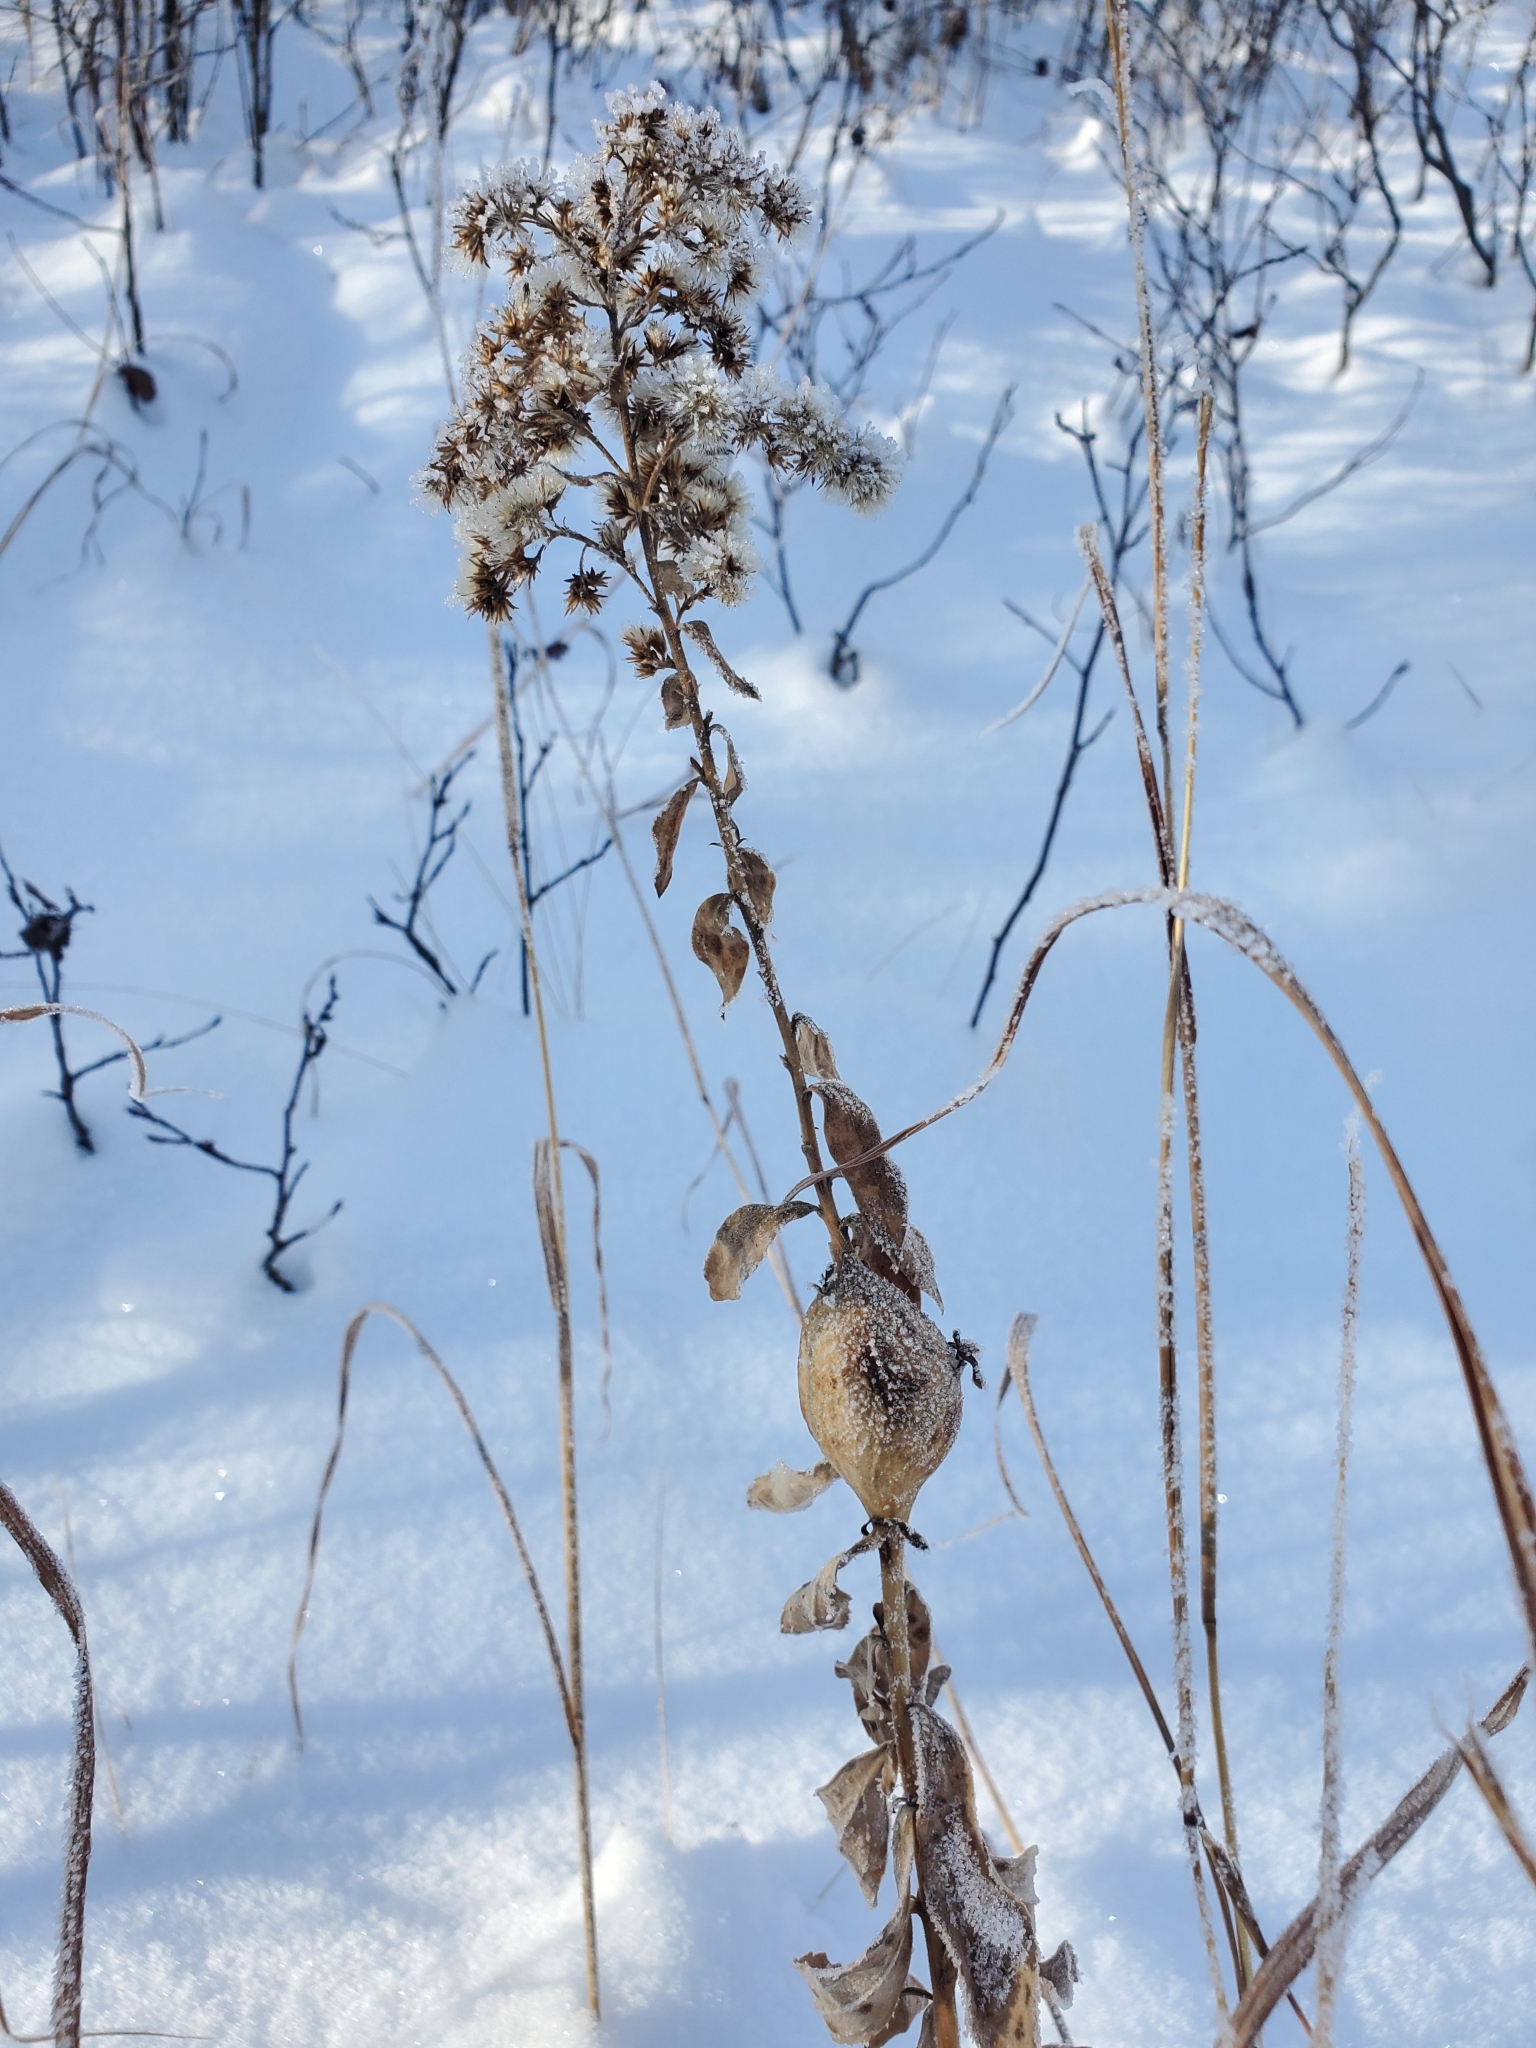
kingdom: Animalia
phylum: Arthropoda
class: Insecta
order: Diptera
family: Tephritidae
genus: Eurosta
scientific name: Eurosta solidaginis
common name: Goldenrod gall fly
